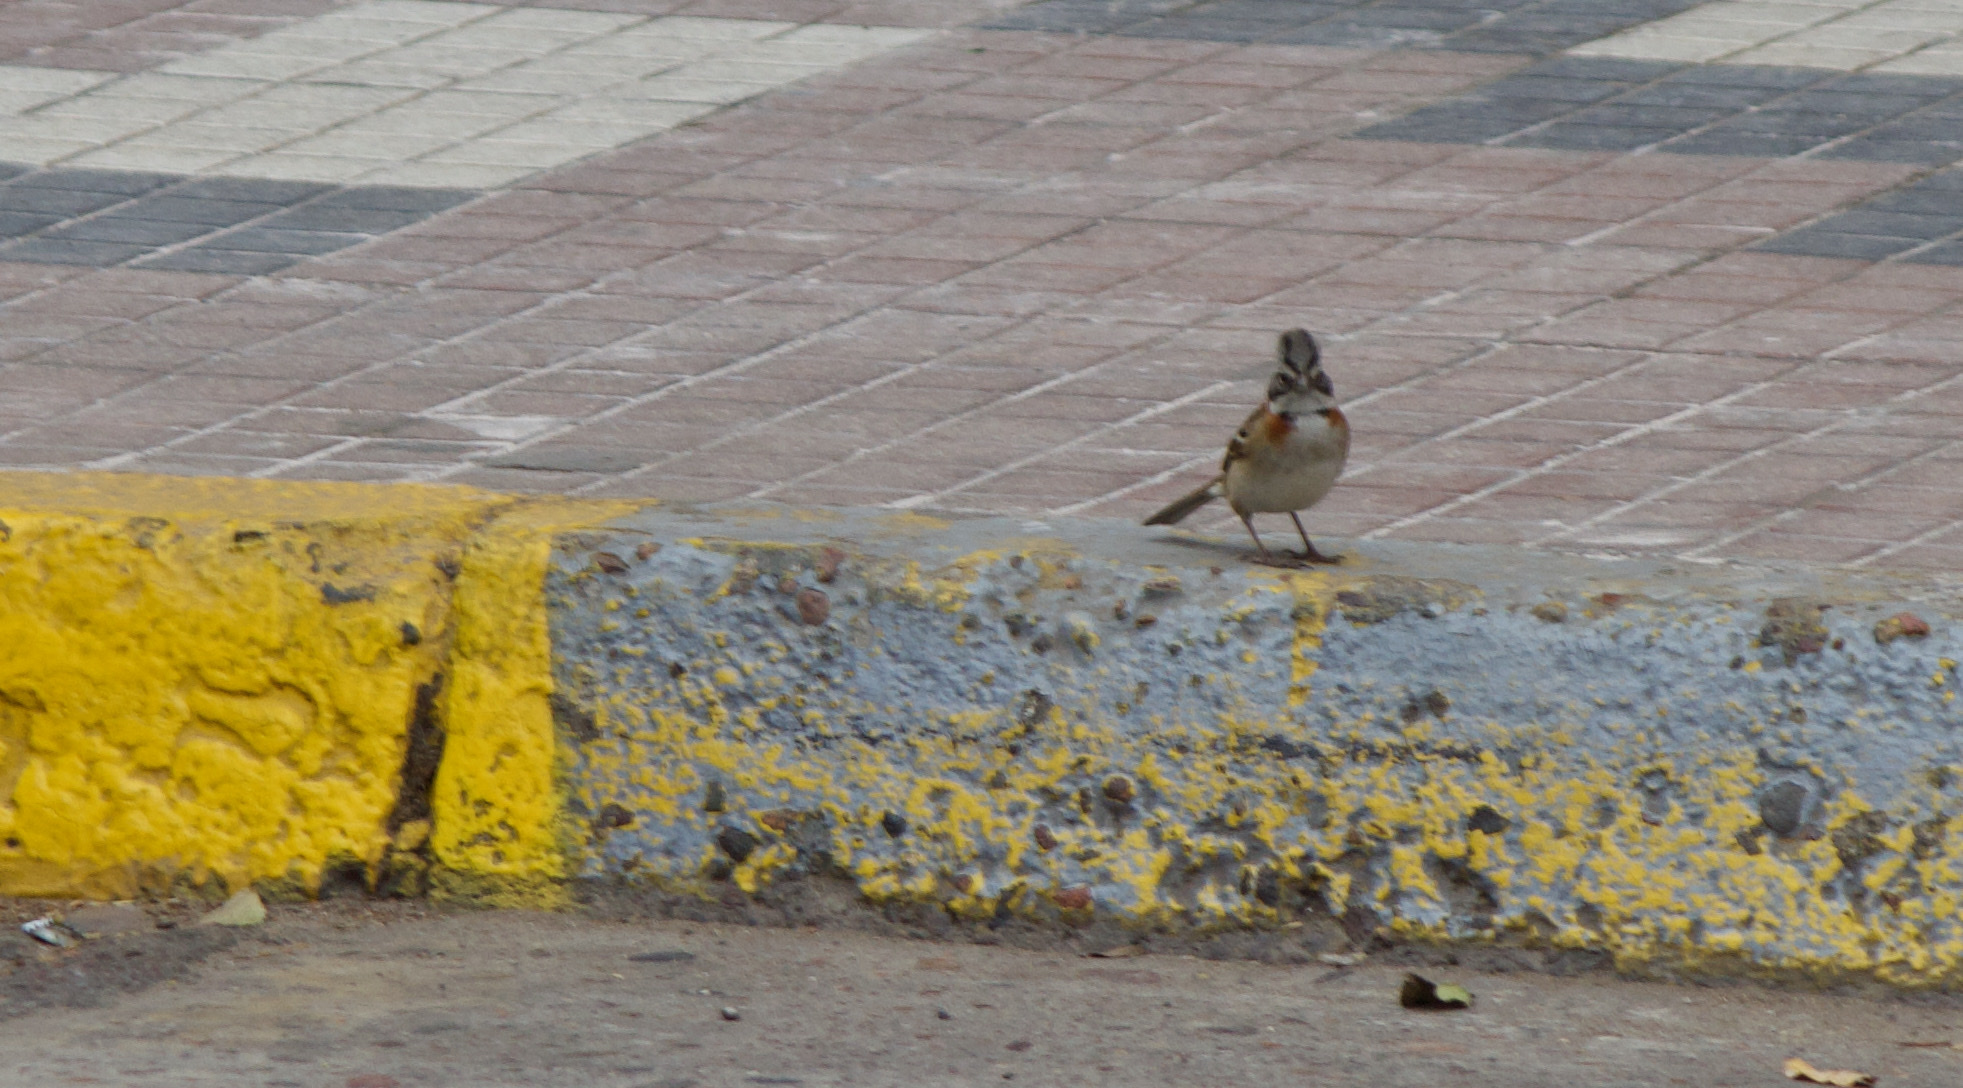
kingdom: Animalia
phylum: Chordata
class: Aves
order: Passeriformes
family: Passerellidae
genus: Zonotrichia
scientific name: Zonotrichia capensis
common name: Rufous-collared sparrow
